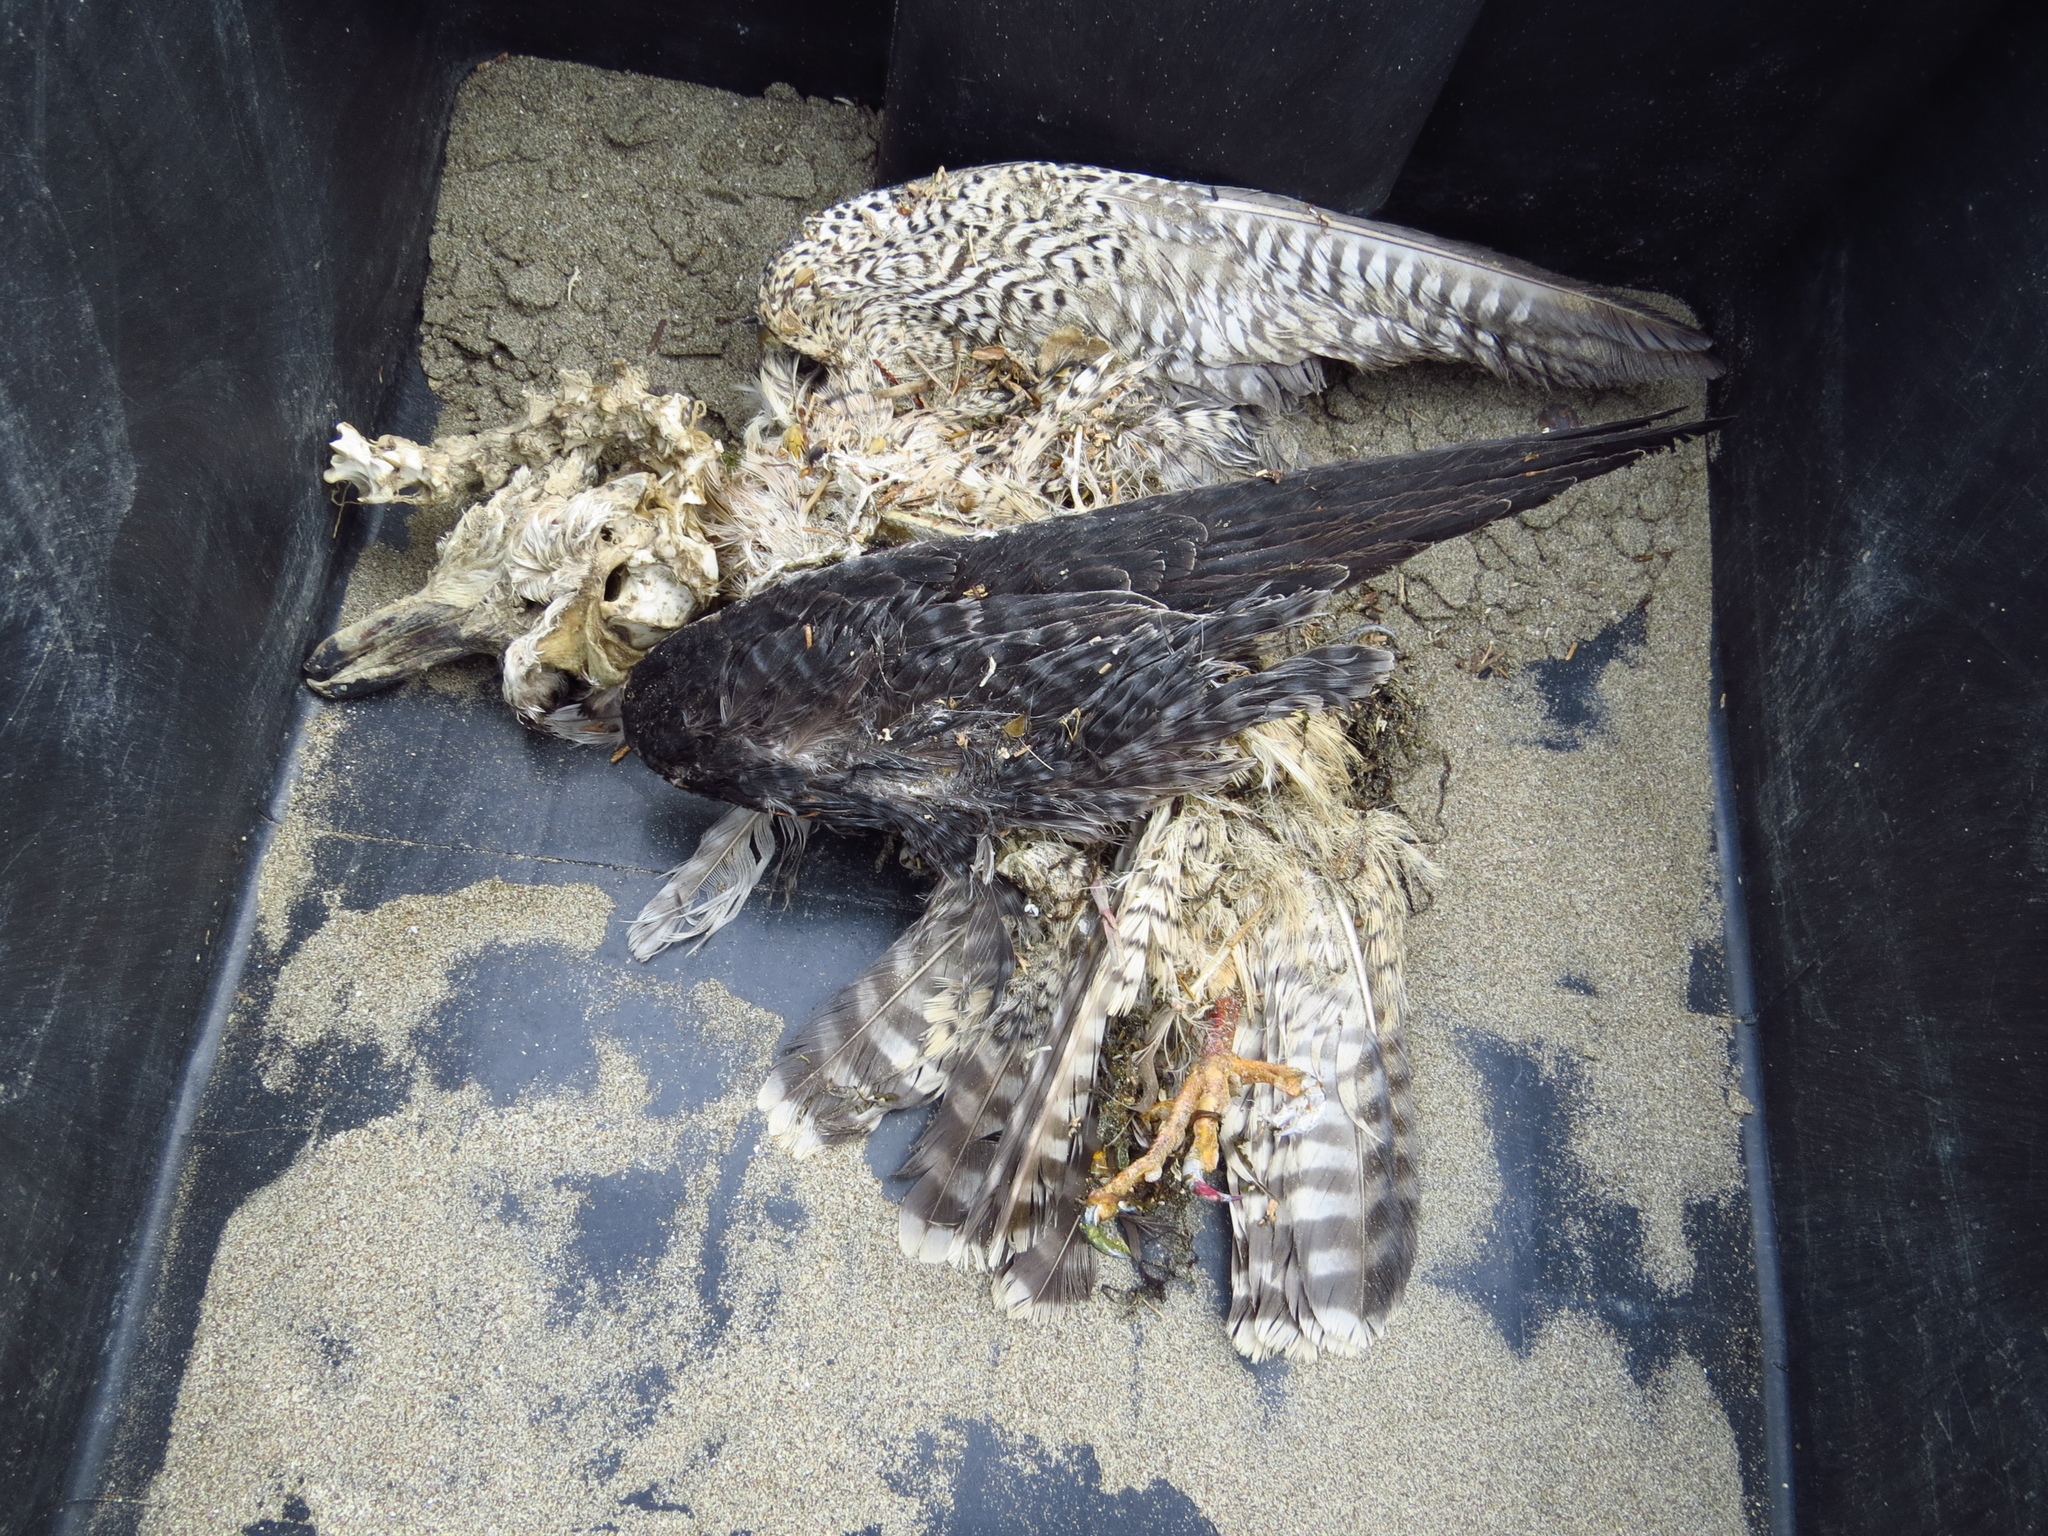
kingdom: Animalia
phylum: Chordata
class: Aves
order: Falconiformes
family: Falconidae
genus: Falco
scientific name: Falco peregrinus
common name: Peregrine falcon
